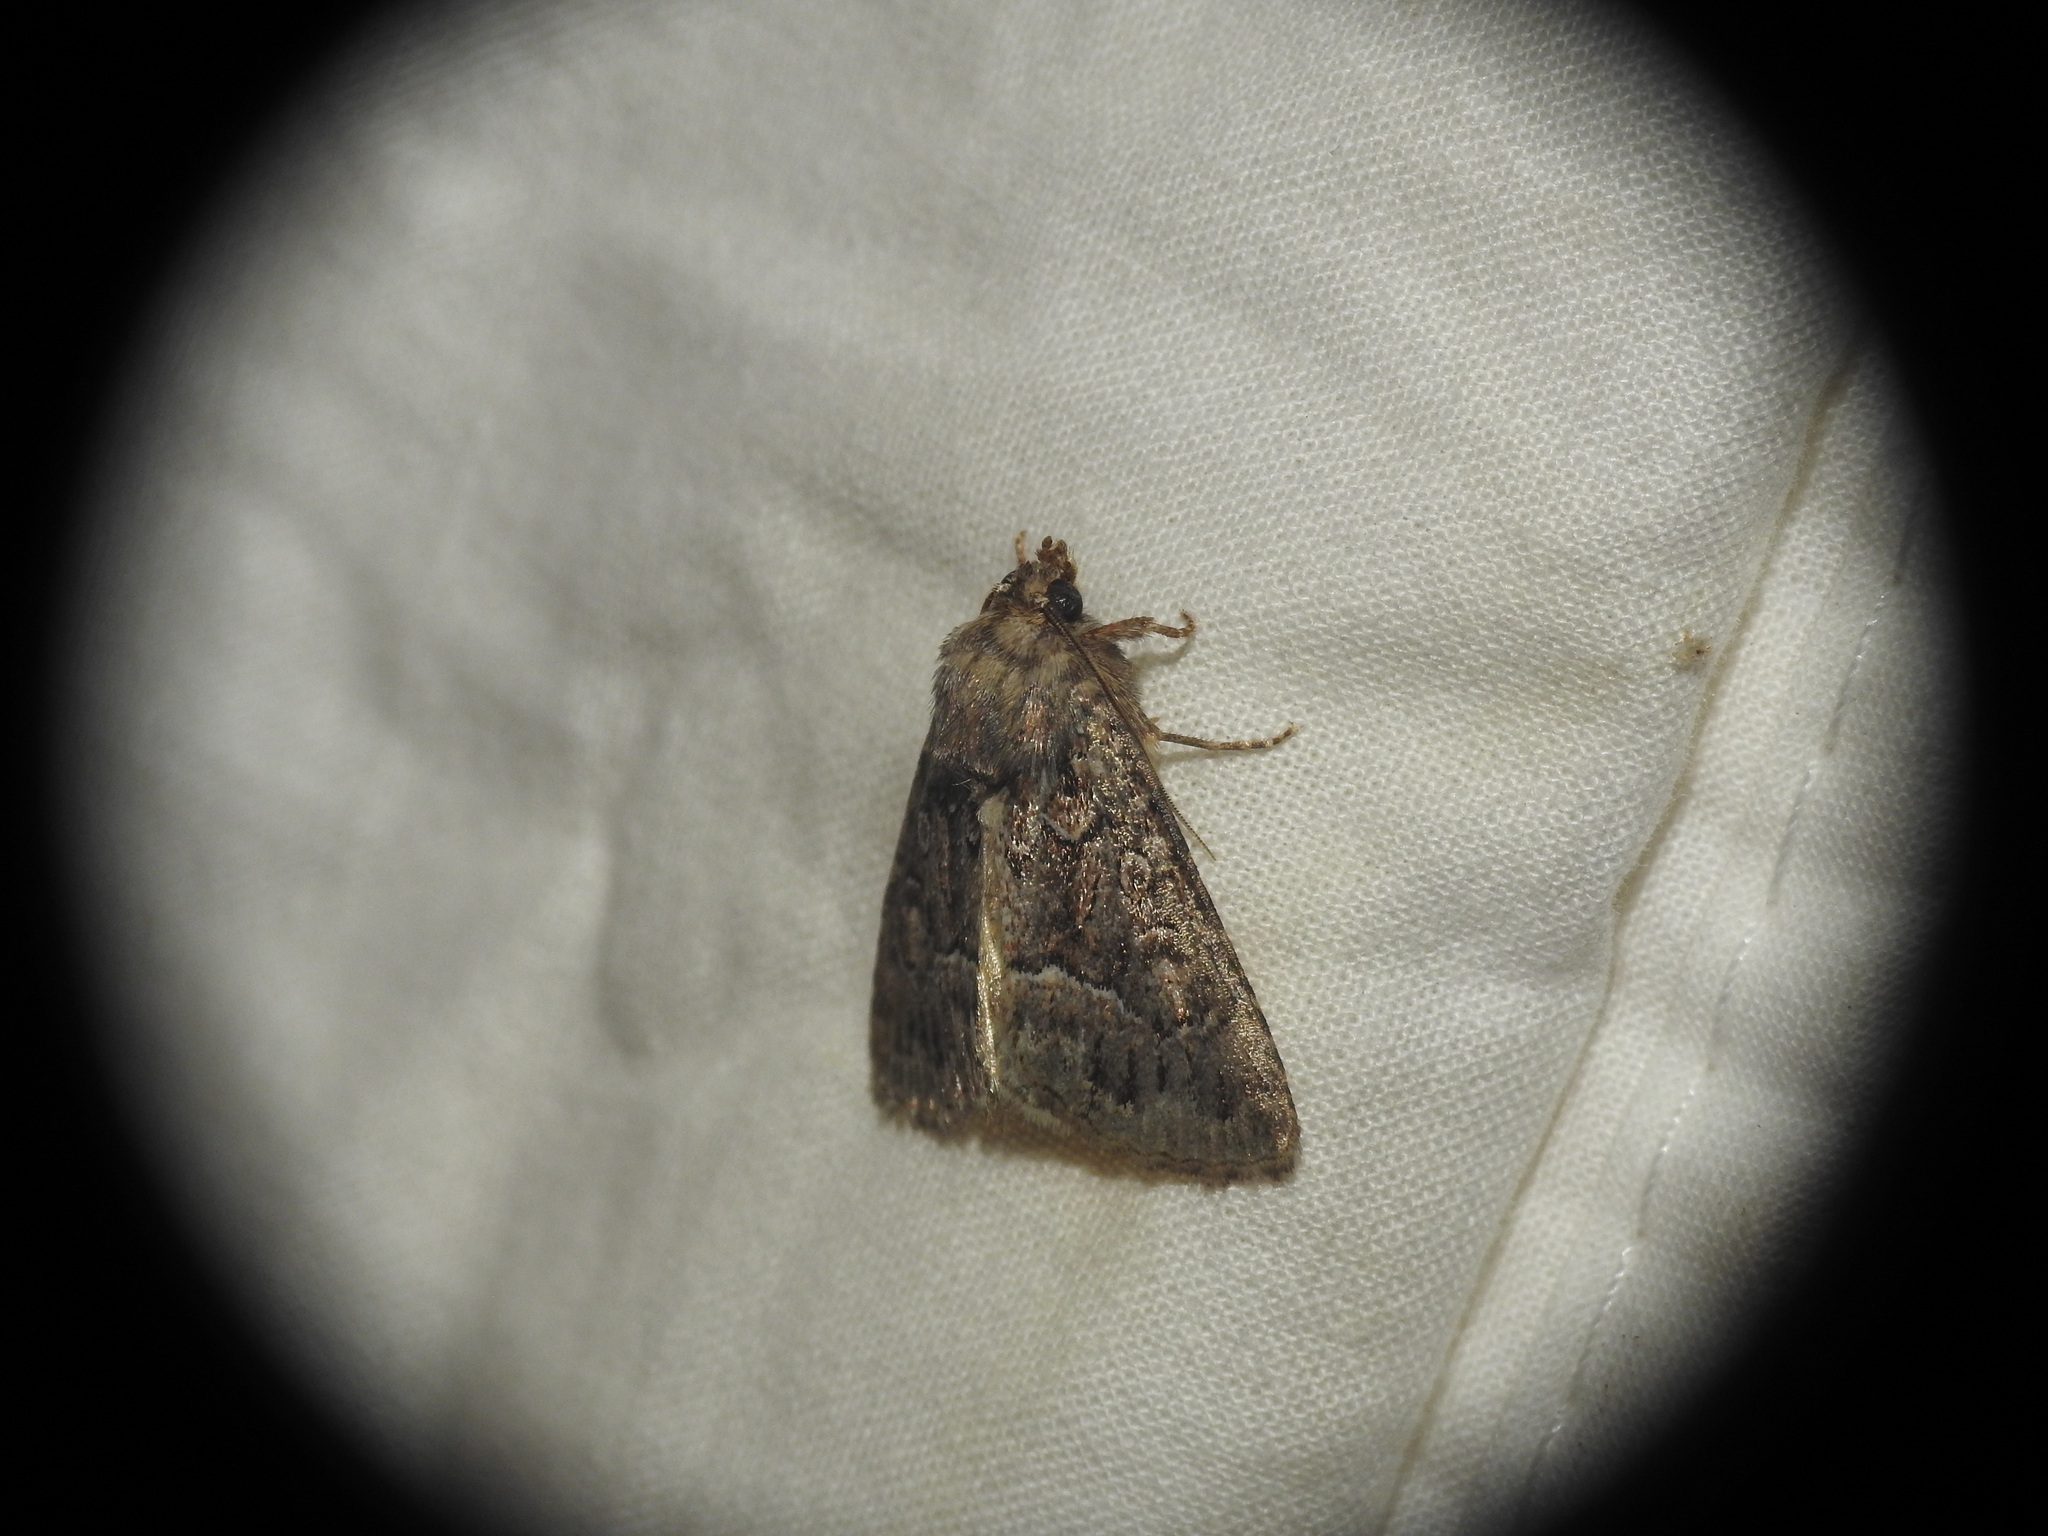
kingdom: Animalia
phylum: Arthropoda
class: Insecta
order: Lepidoptera
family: Noctuidae
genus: Thalpophila
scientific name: Thalpophila matura
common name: Straw underwing
